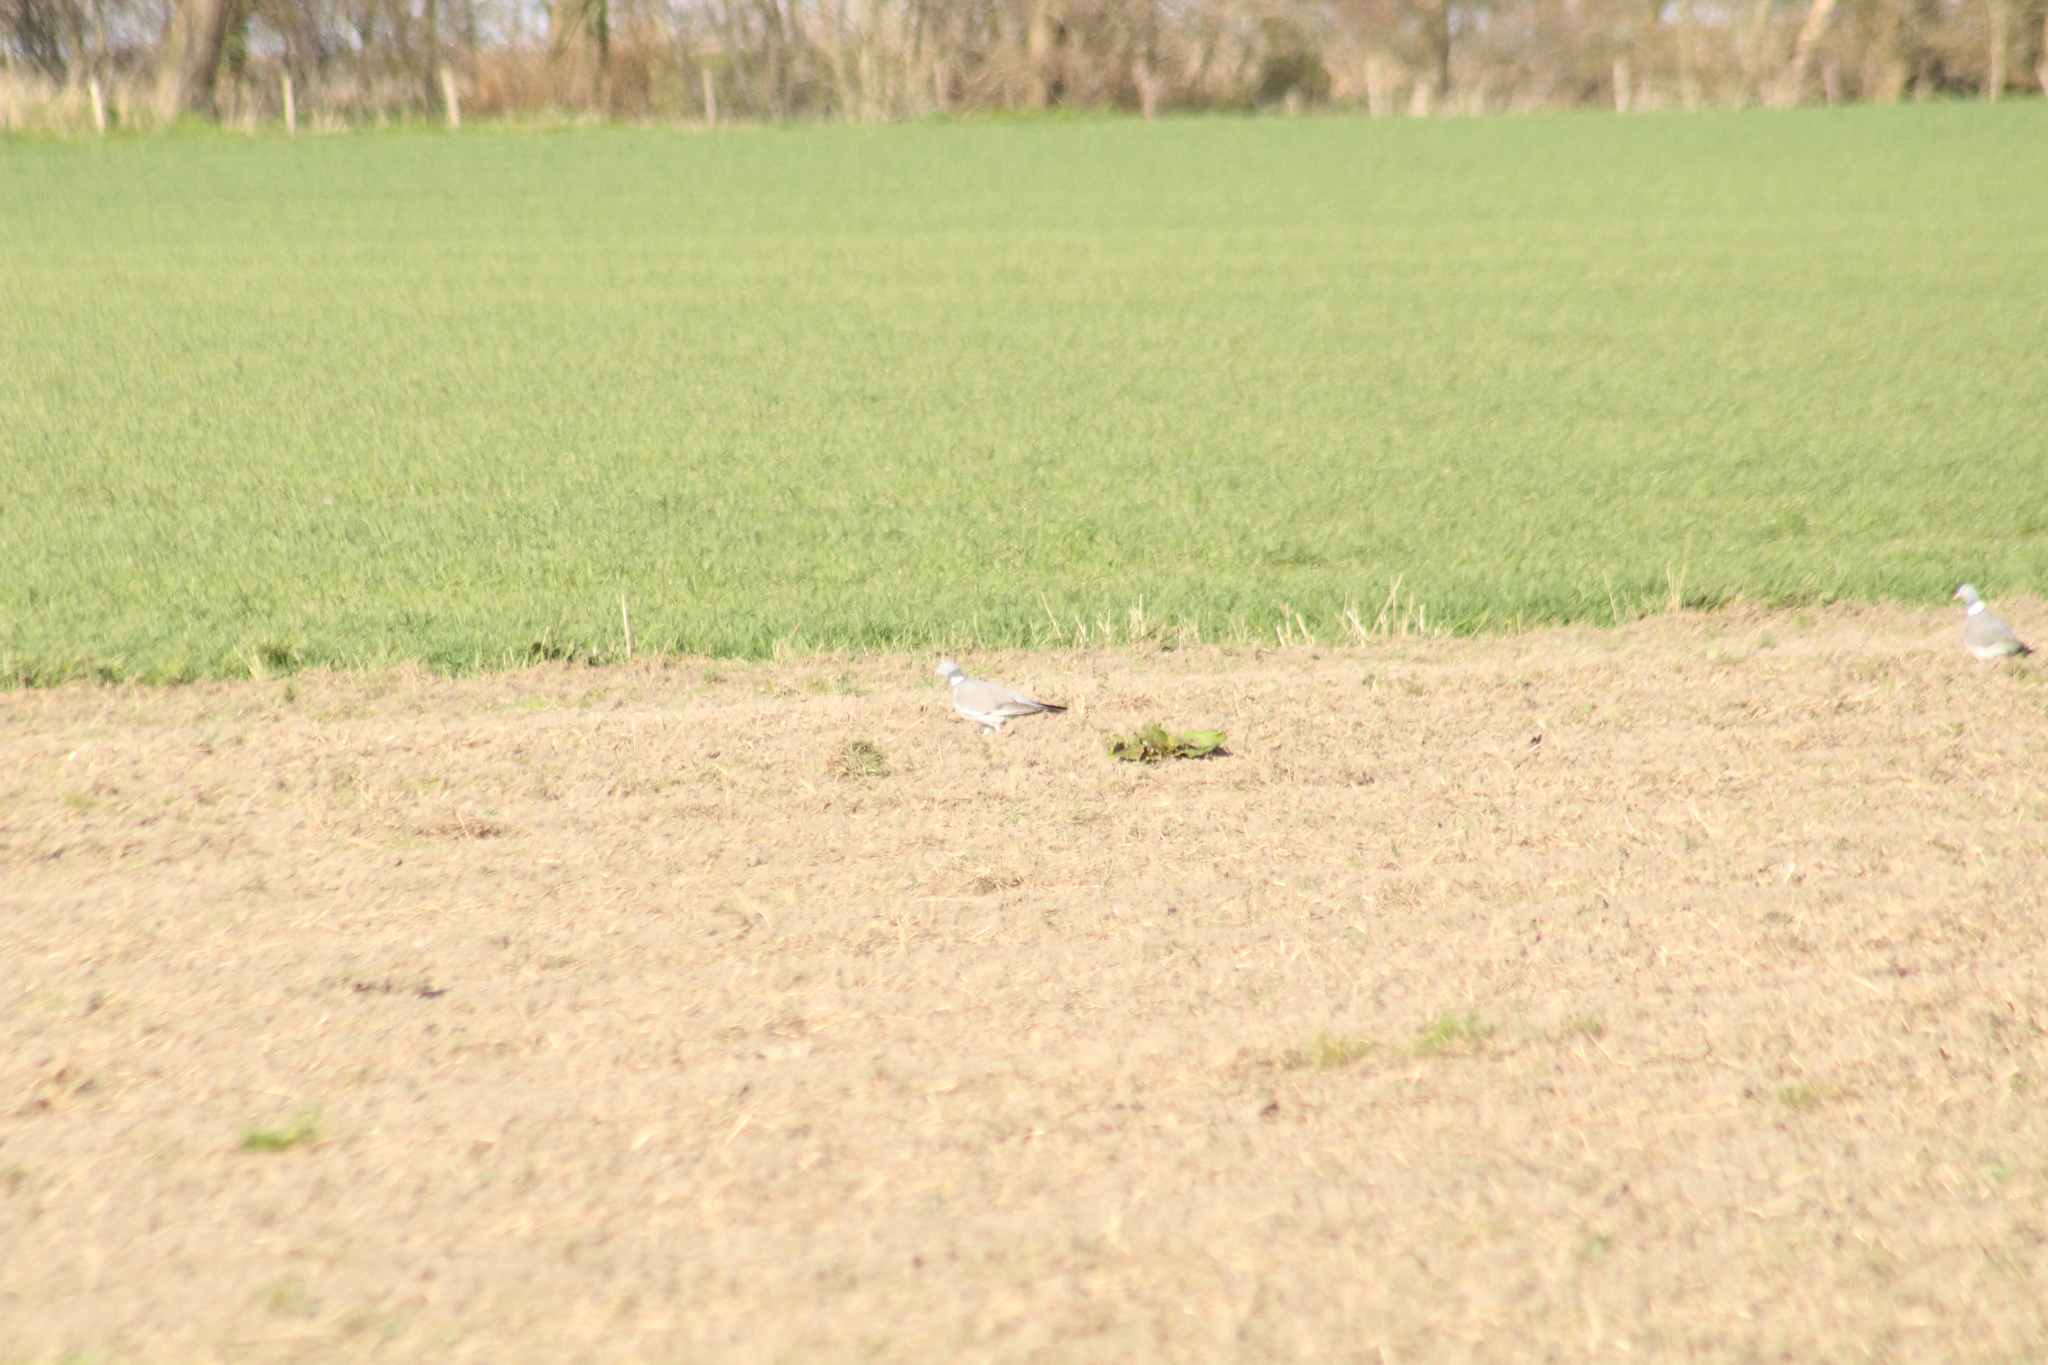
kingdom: Animalia
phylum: Chordata
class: Aves
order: Columbiformes
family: Columbidae
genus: Columba
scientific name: Columba palumbus
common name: Common wood pigeon
